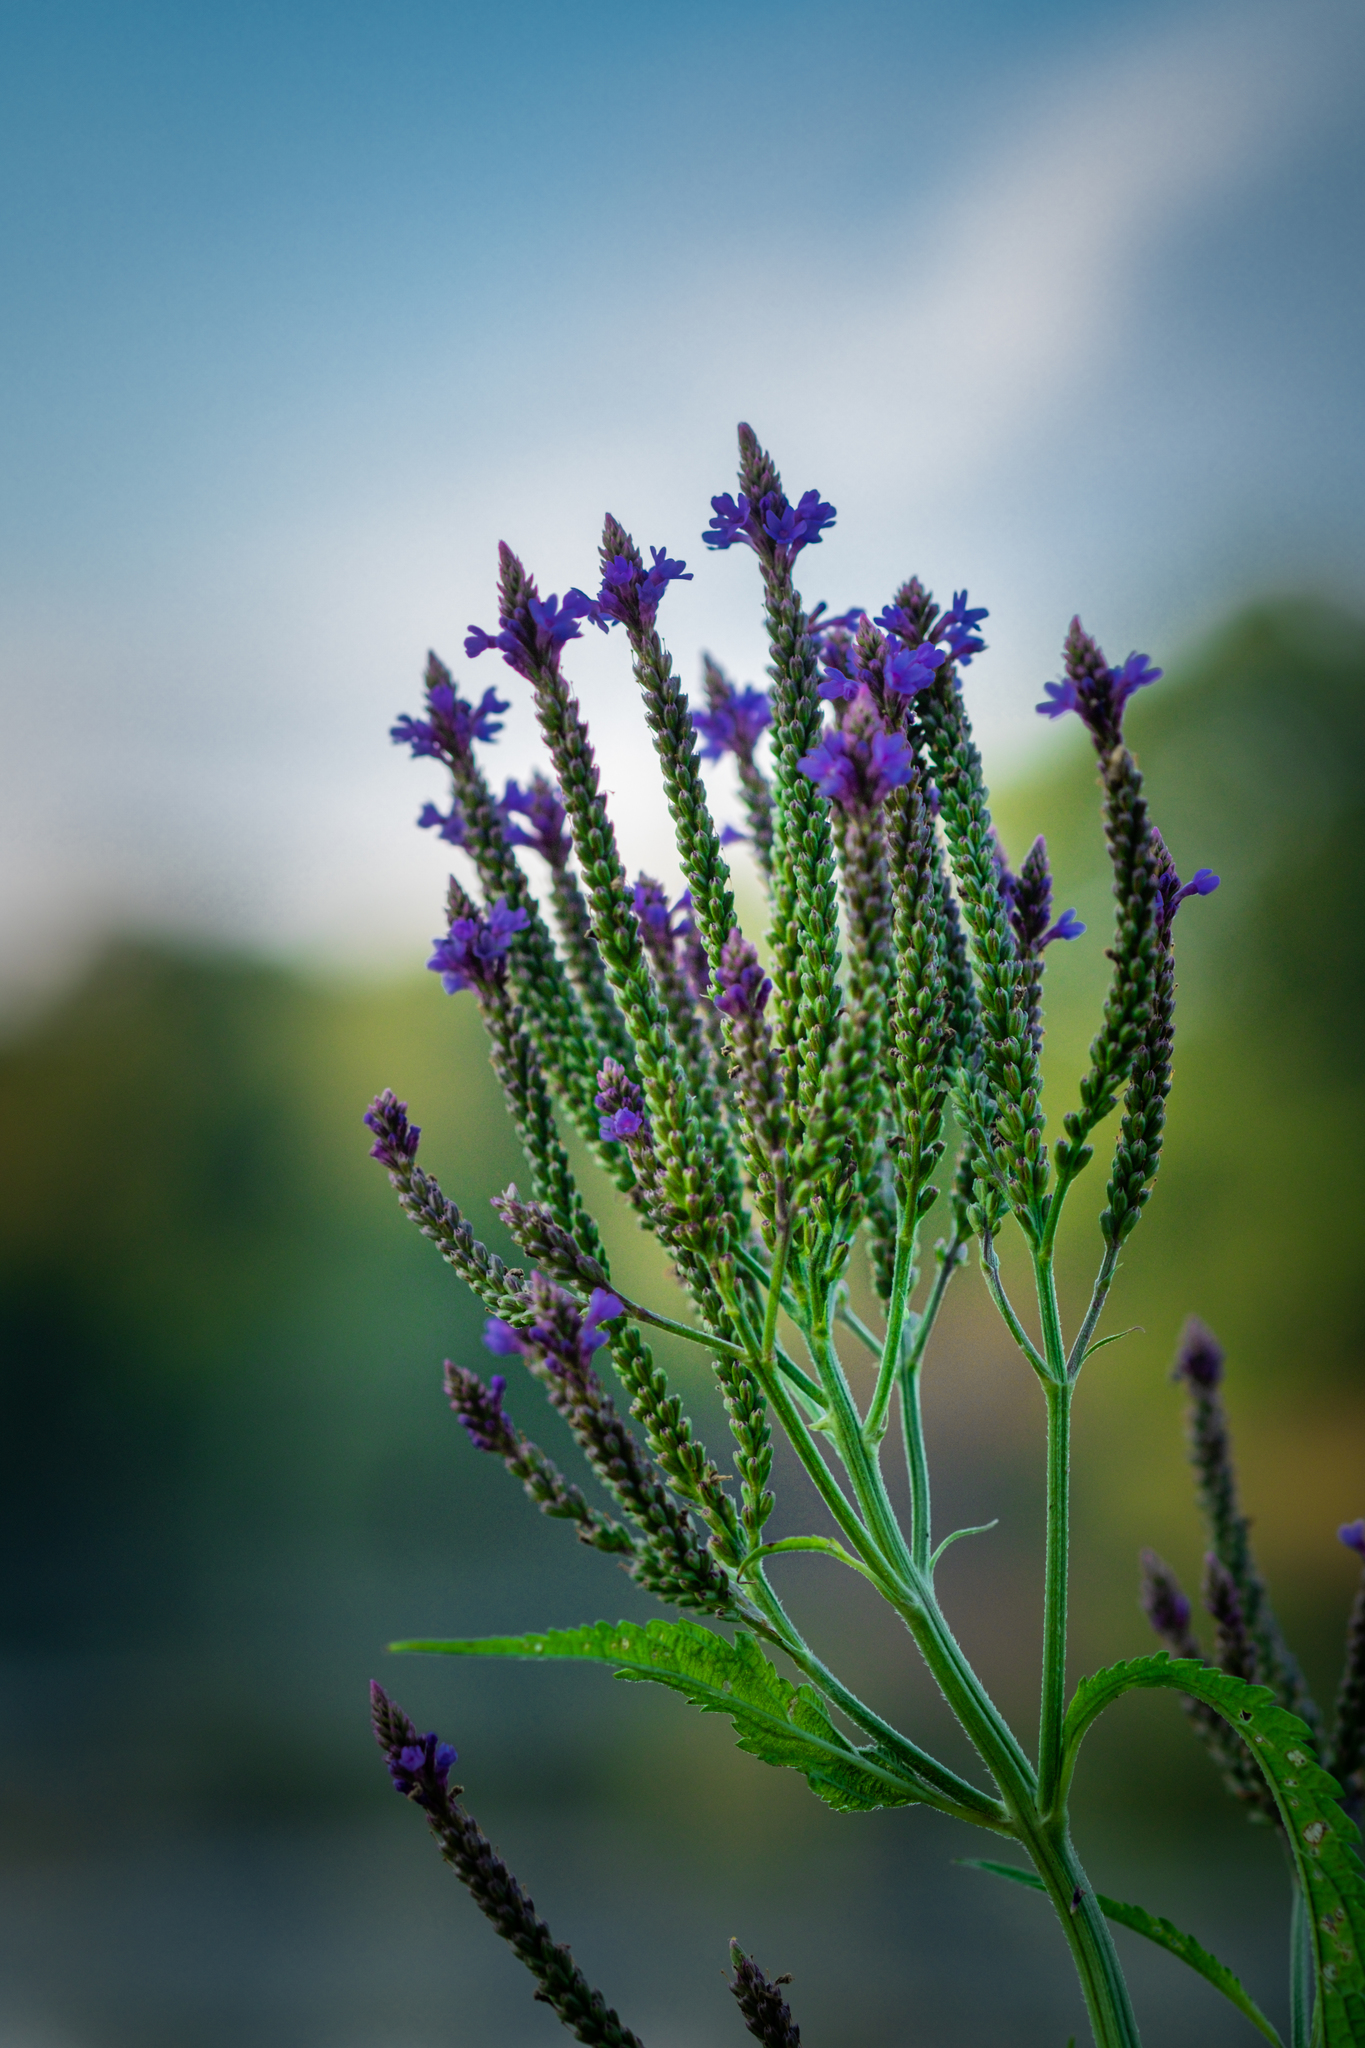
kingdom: Plantae
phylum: Tracheophyta
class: Magnoliopsida
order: Lamiales
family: Verbenaceae
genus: Verbena
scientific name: Verbena hastata
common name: American blue vervain
